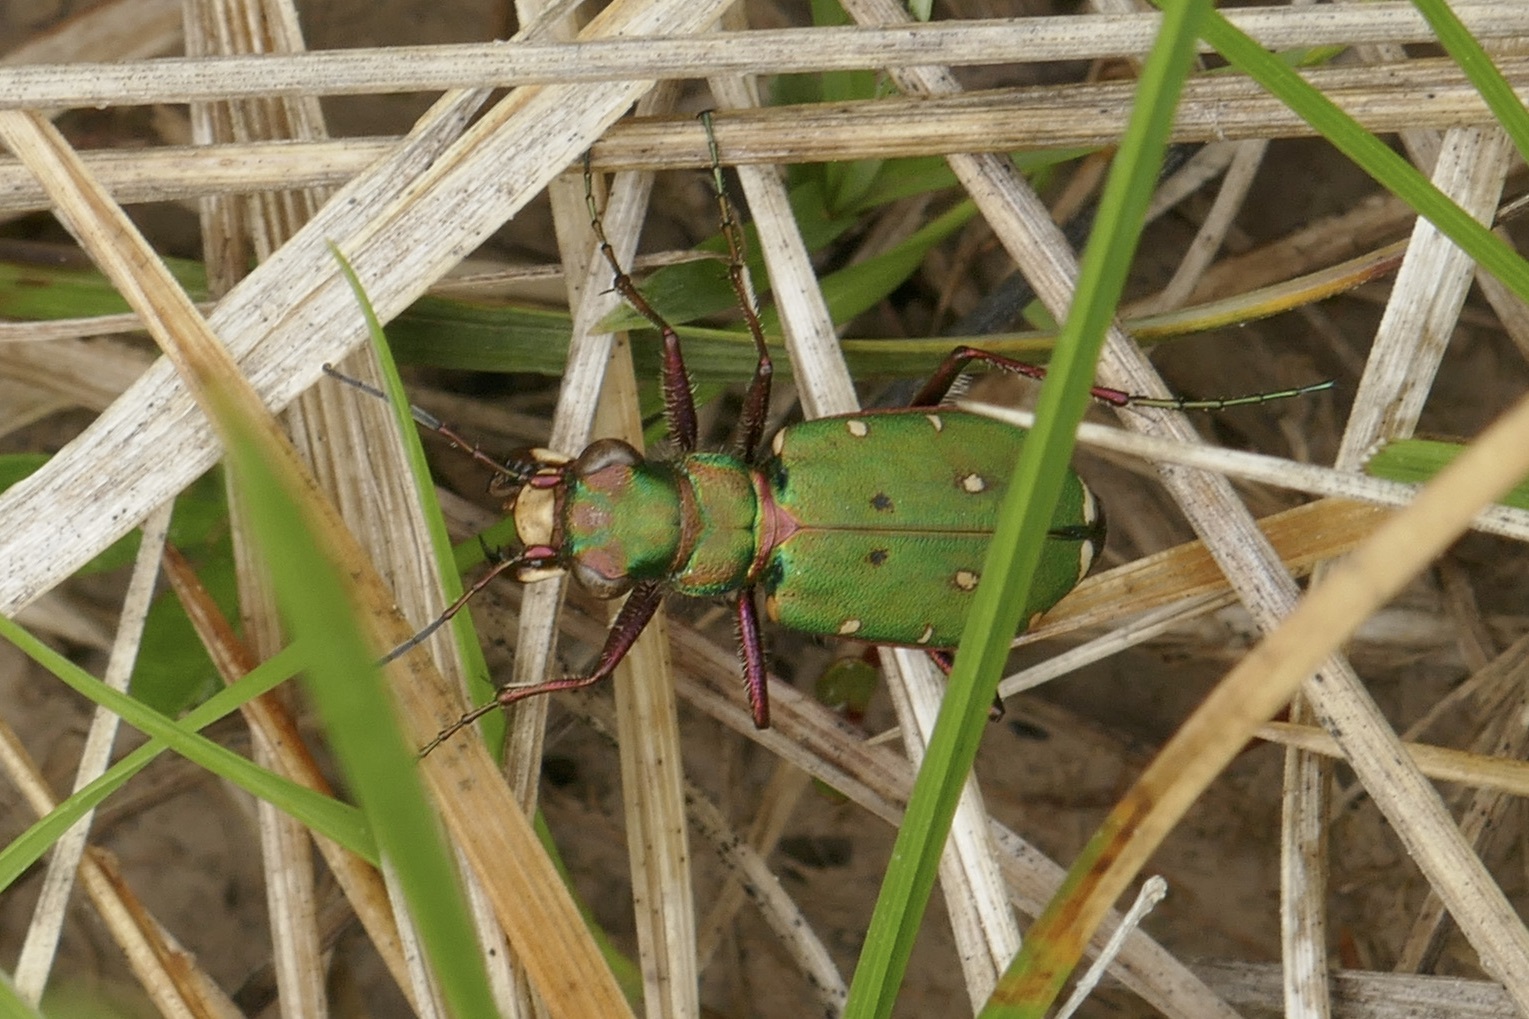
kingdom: Animalia
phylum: Arthropoda
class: Insecta
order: Coleoptera
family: Carabidae
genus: Cicindela
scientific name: Cicindela campestris
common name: Common tiger beetle
